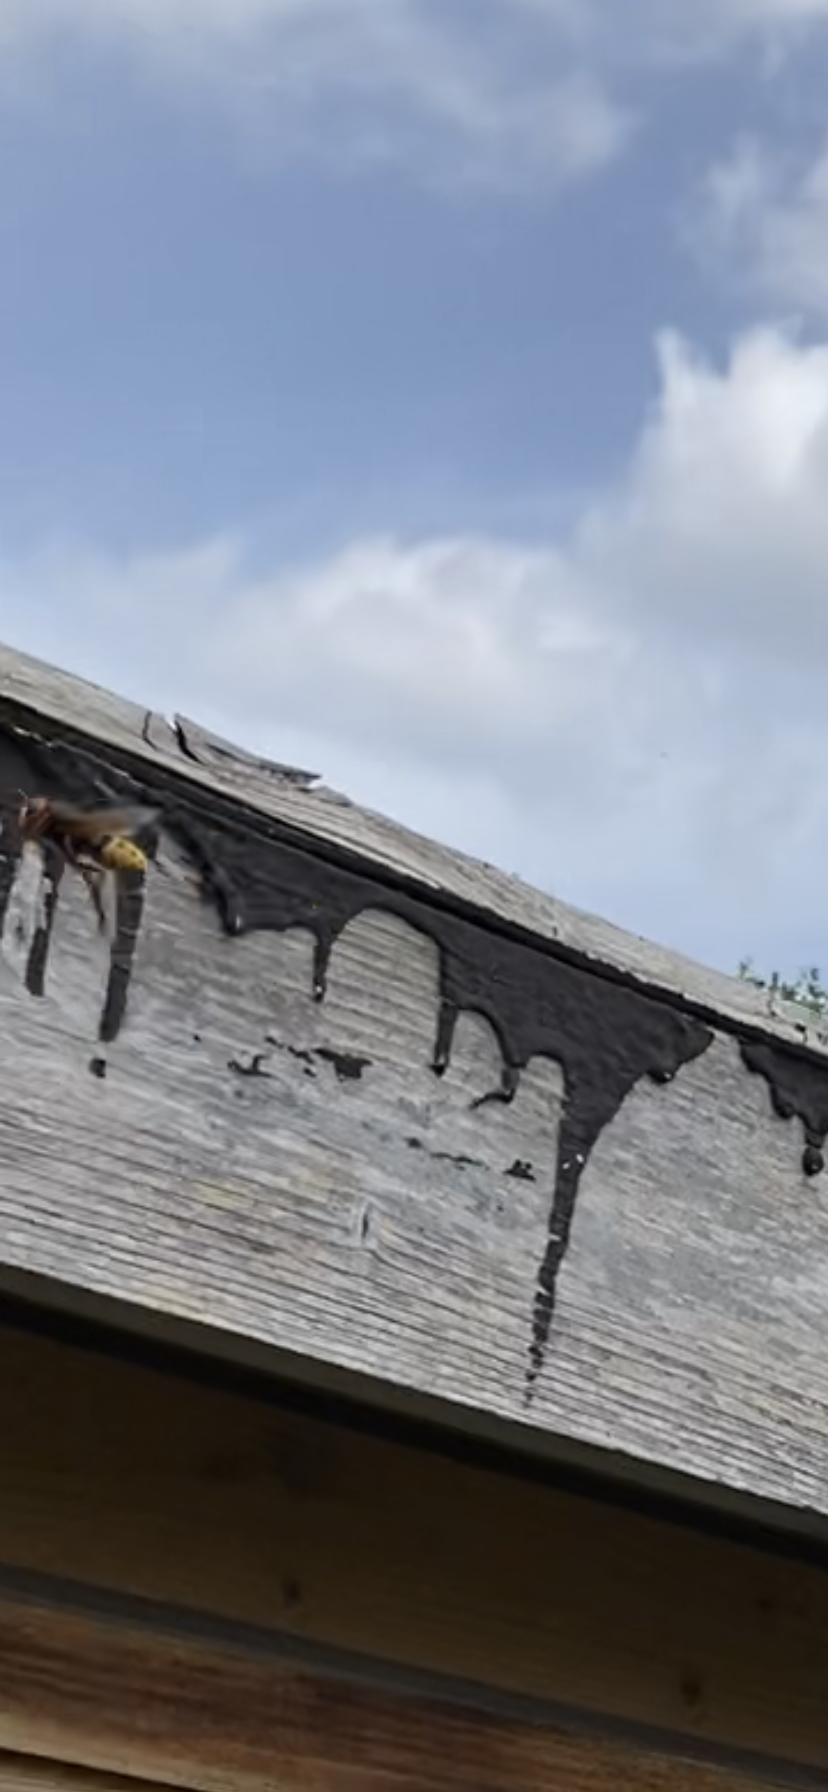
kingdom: Animalia
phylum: Arthropoda
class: Insecta
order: Hymenoptera
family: Vespidae
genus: Vespa
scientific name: Vespa crabro
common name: Hornet
